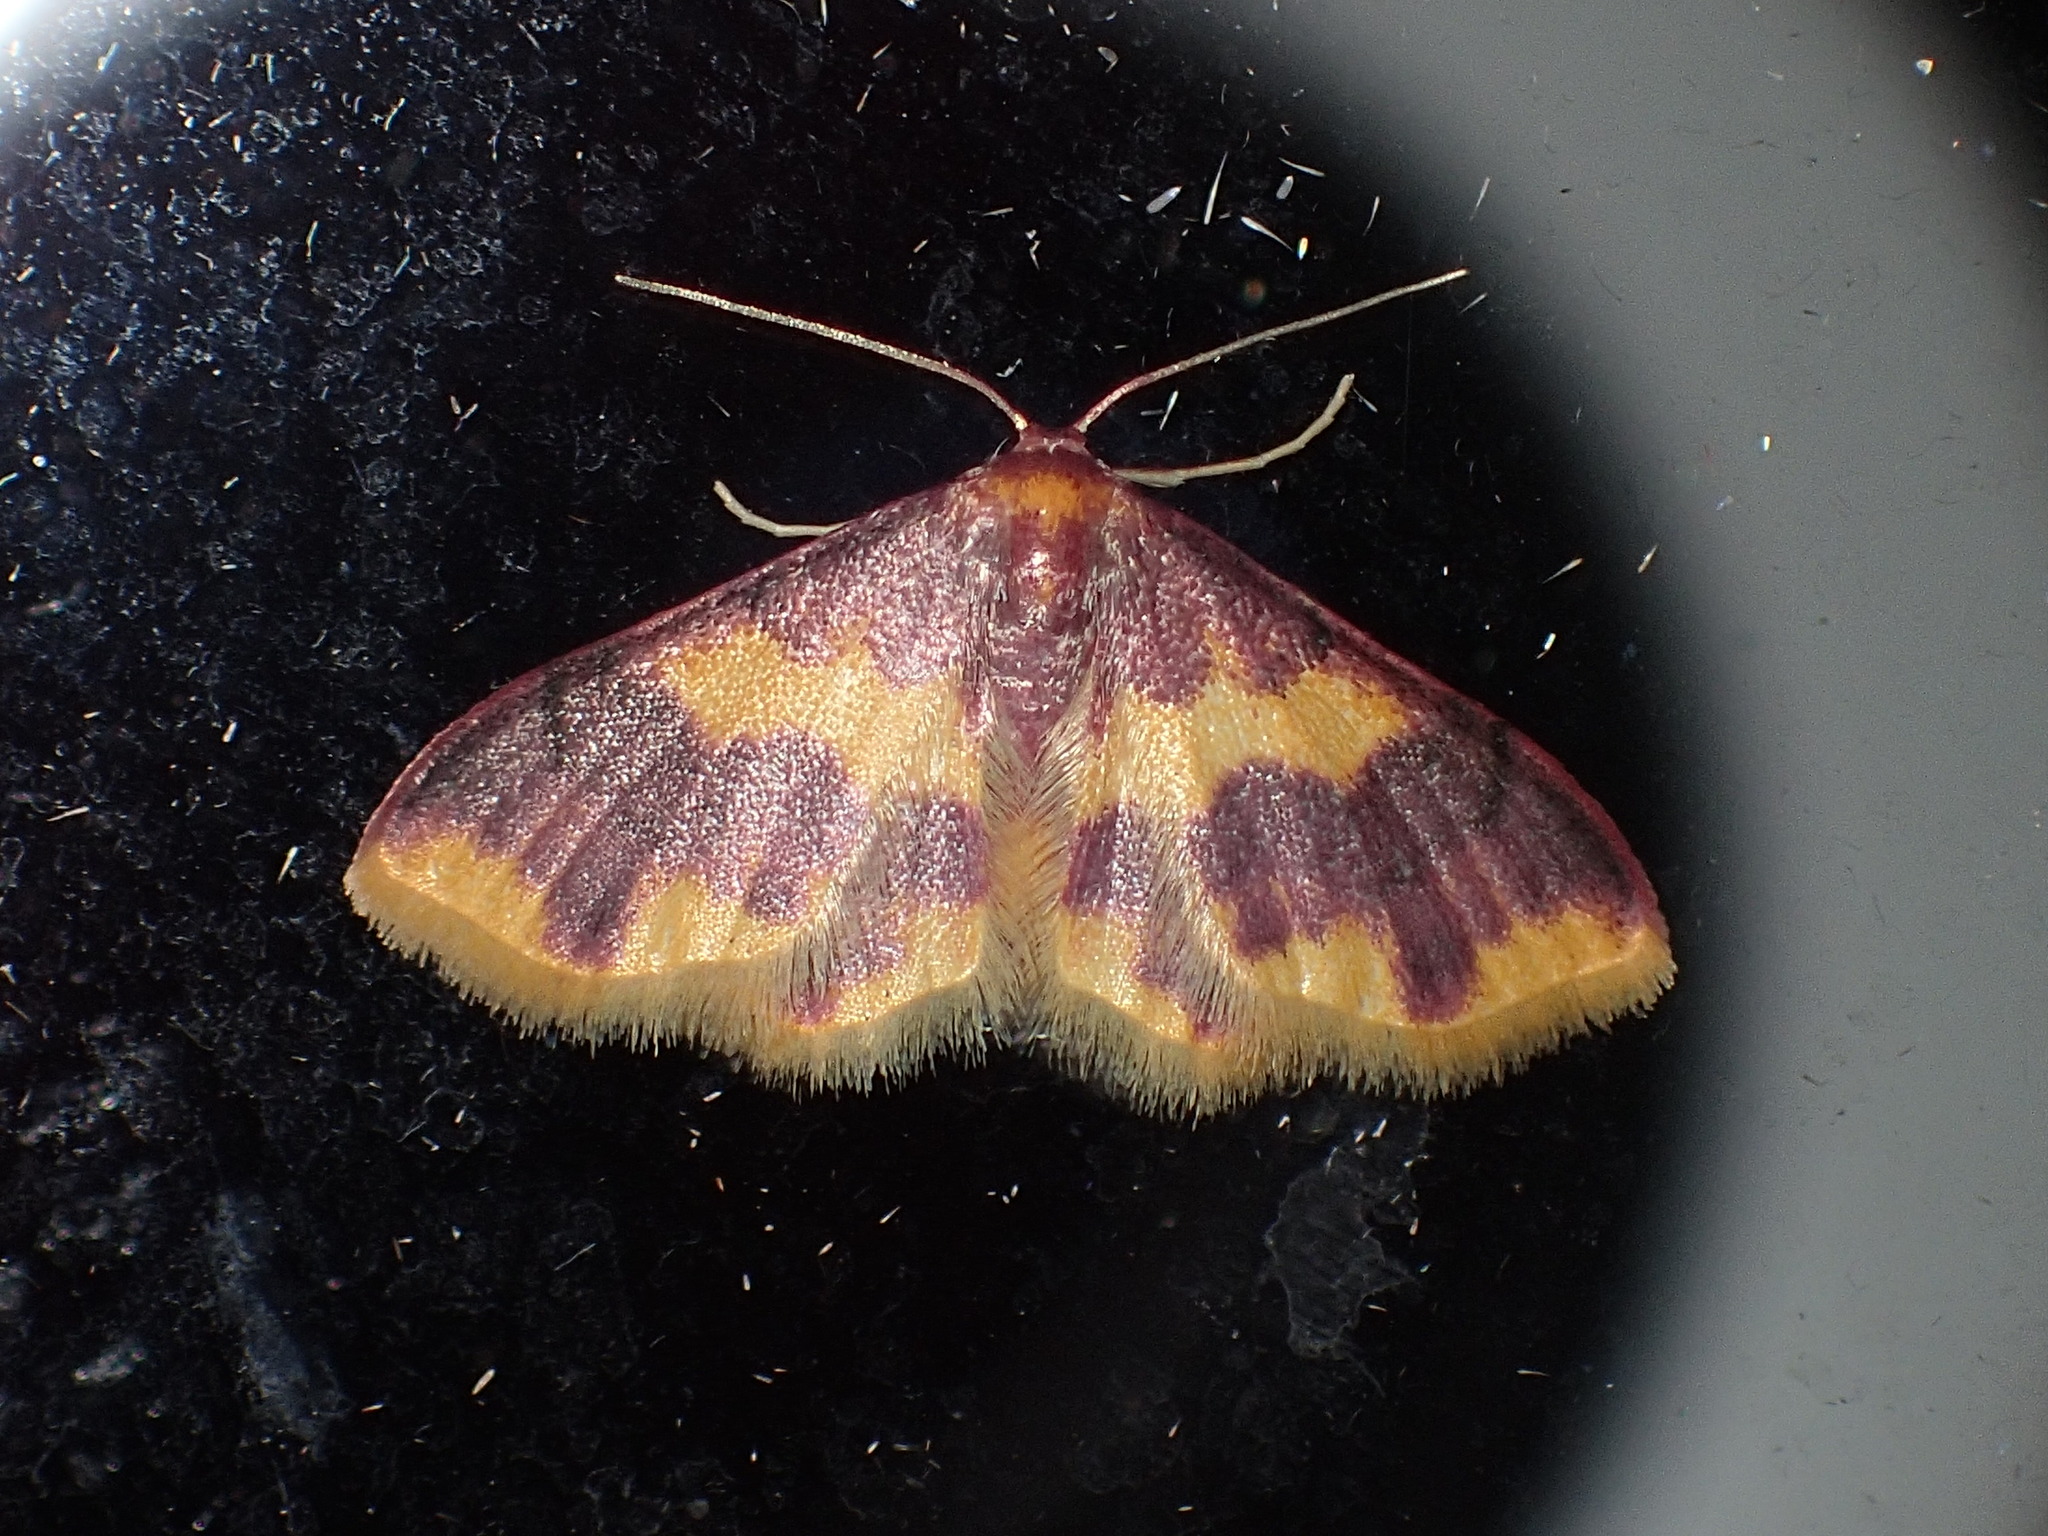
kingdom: Animalia
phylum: Arthropoda
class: Insecta
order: Lepidoptera
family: Geometridae
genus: Lophosis
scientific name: Lophosis labeculata
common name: Stained lophosis moth
